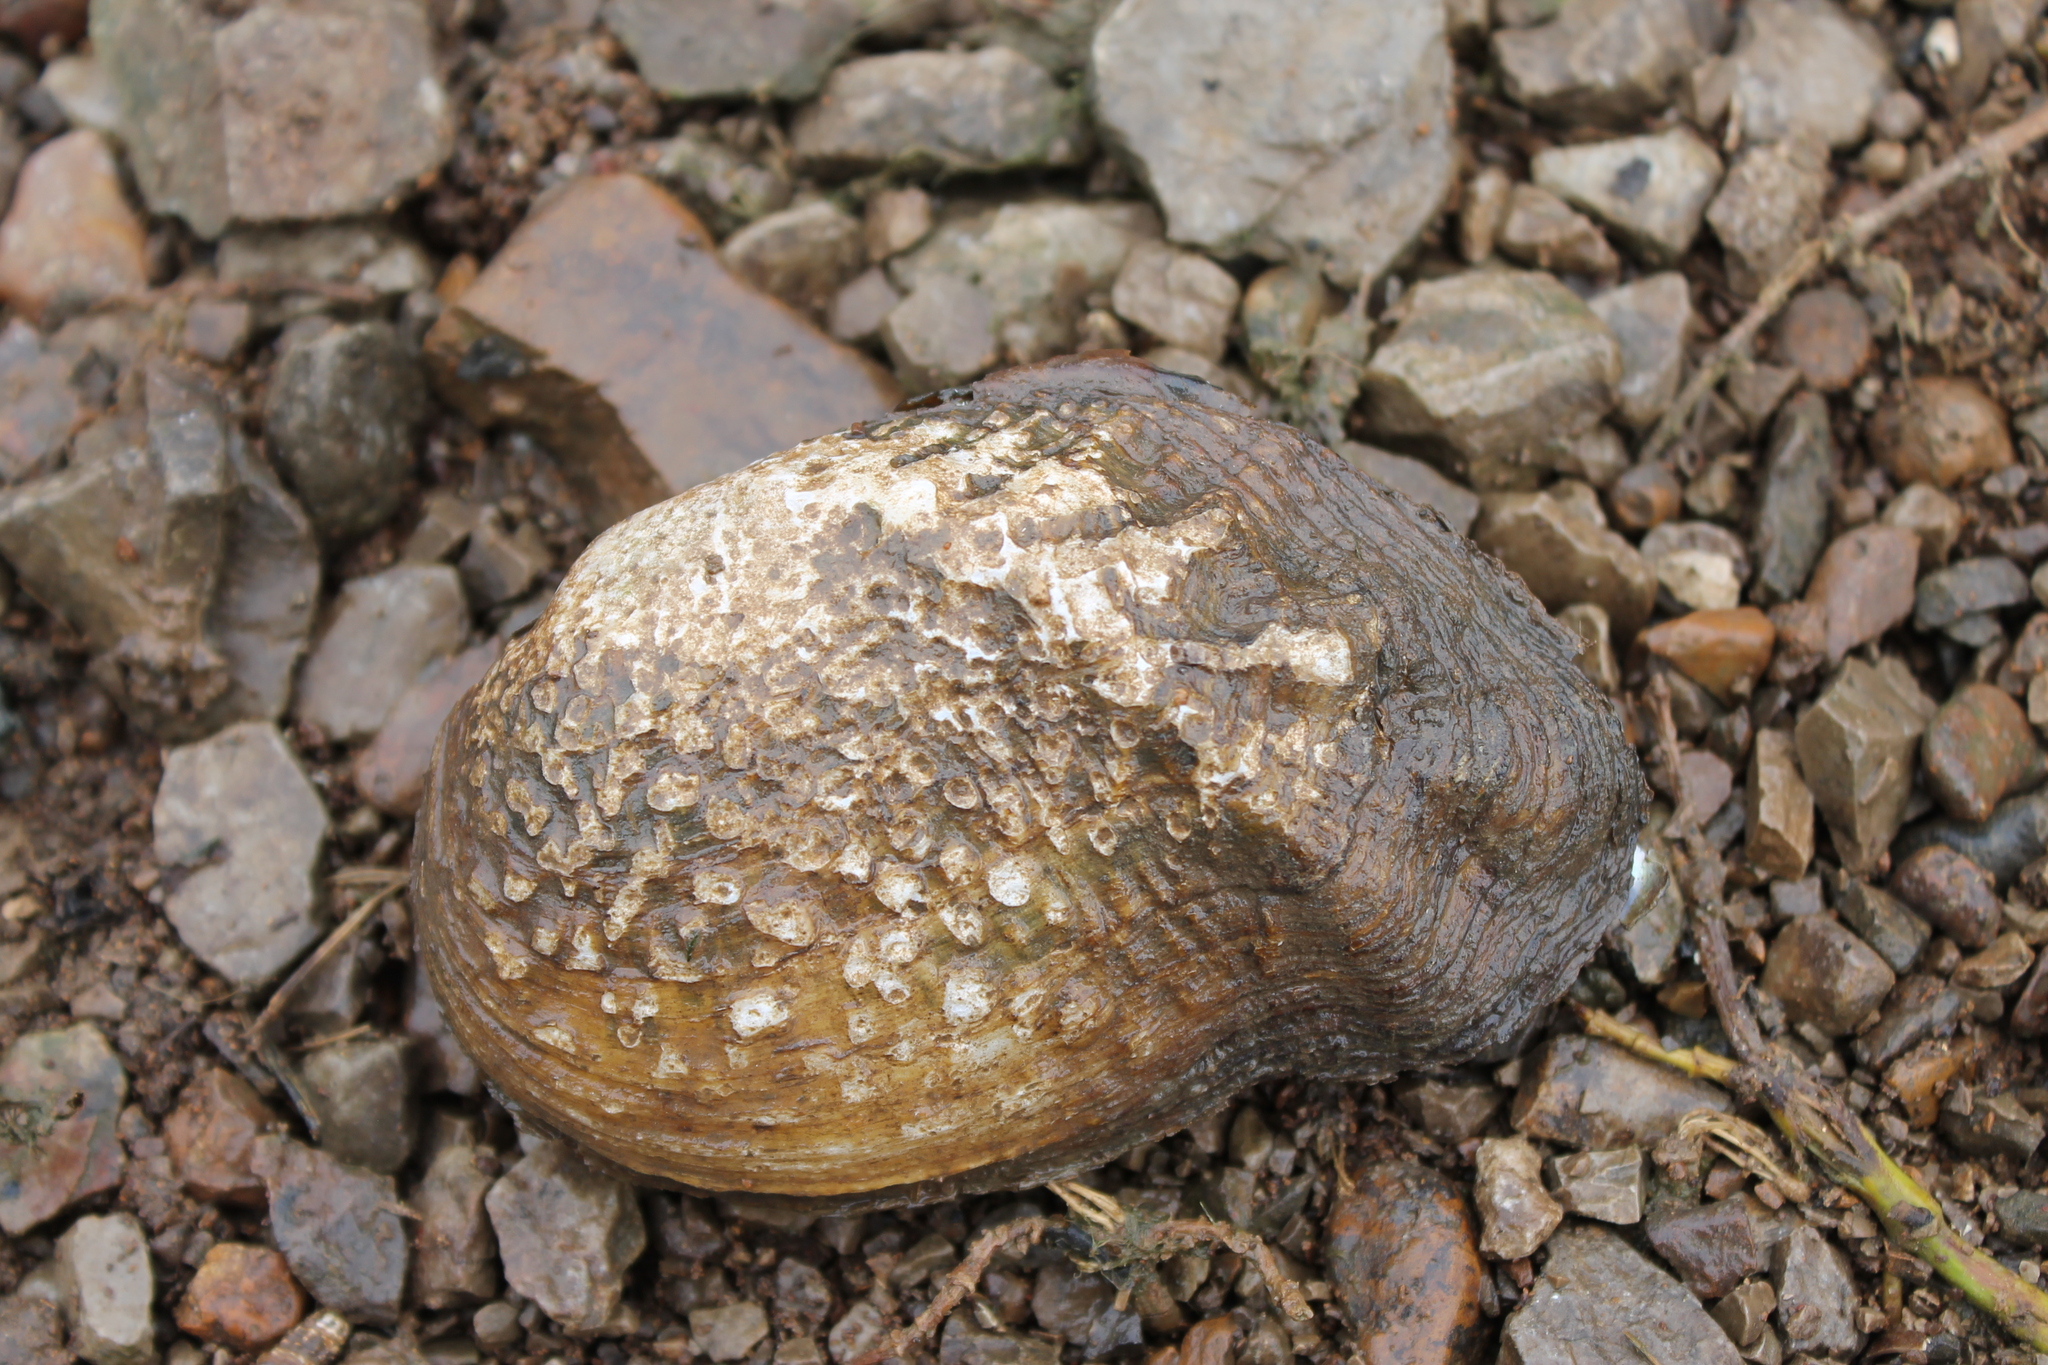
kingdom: Animalia
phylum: Mollusca
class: Bivalvia
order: Unionida
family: Unionidae
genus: Tritogonia
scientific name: Tritogonia verrucosa
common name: Pistolgrip
